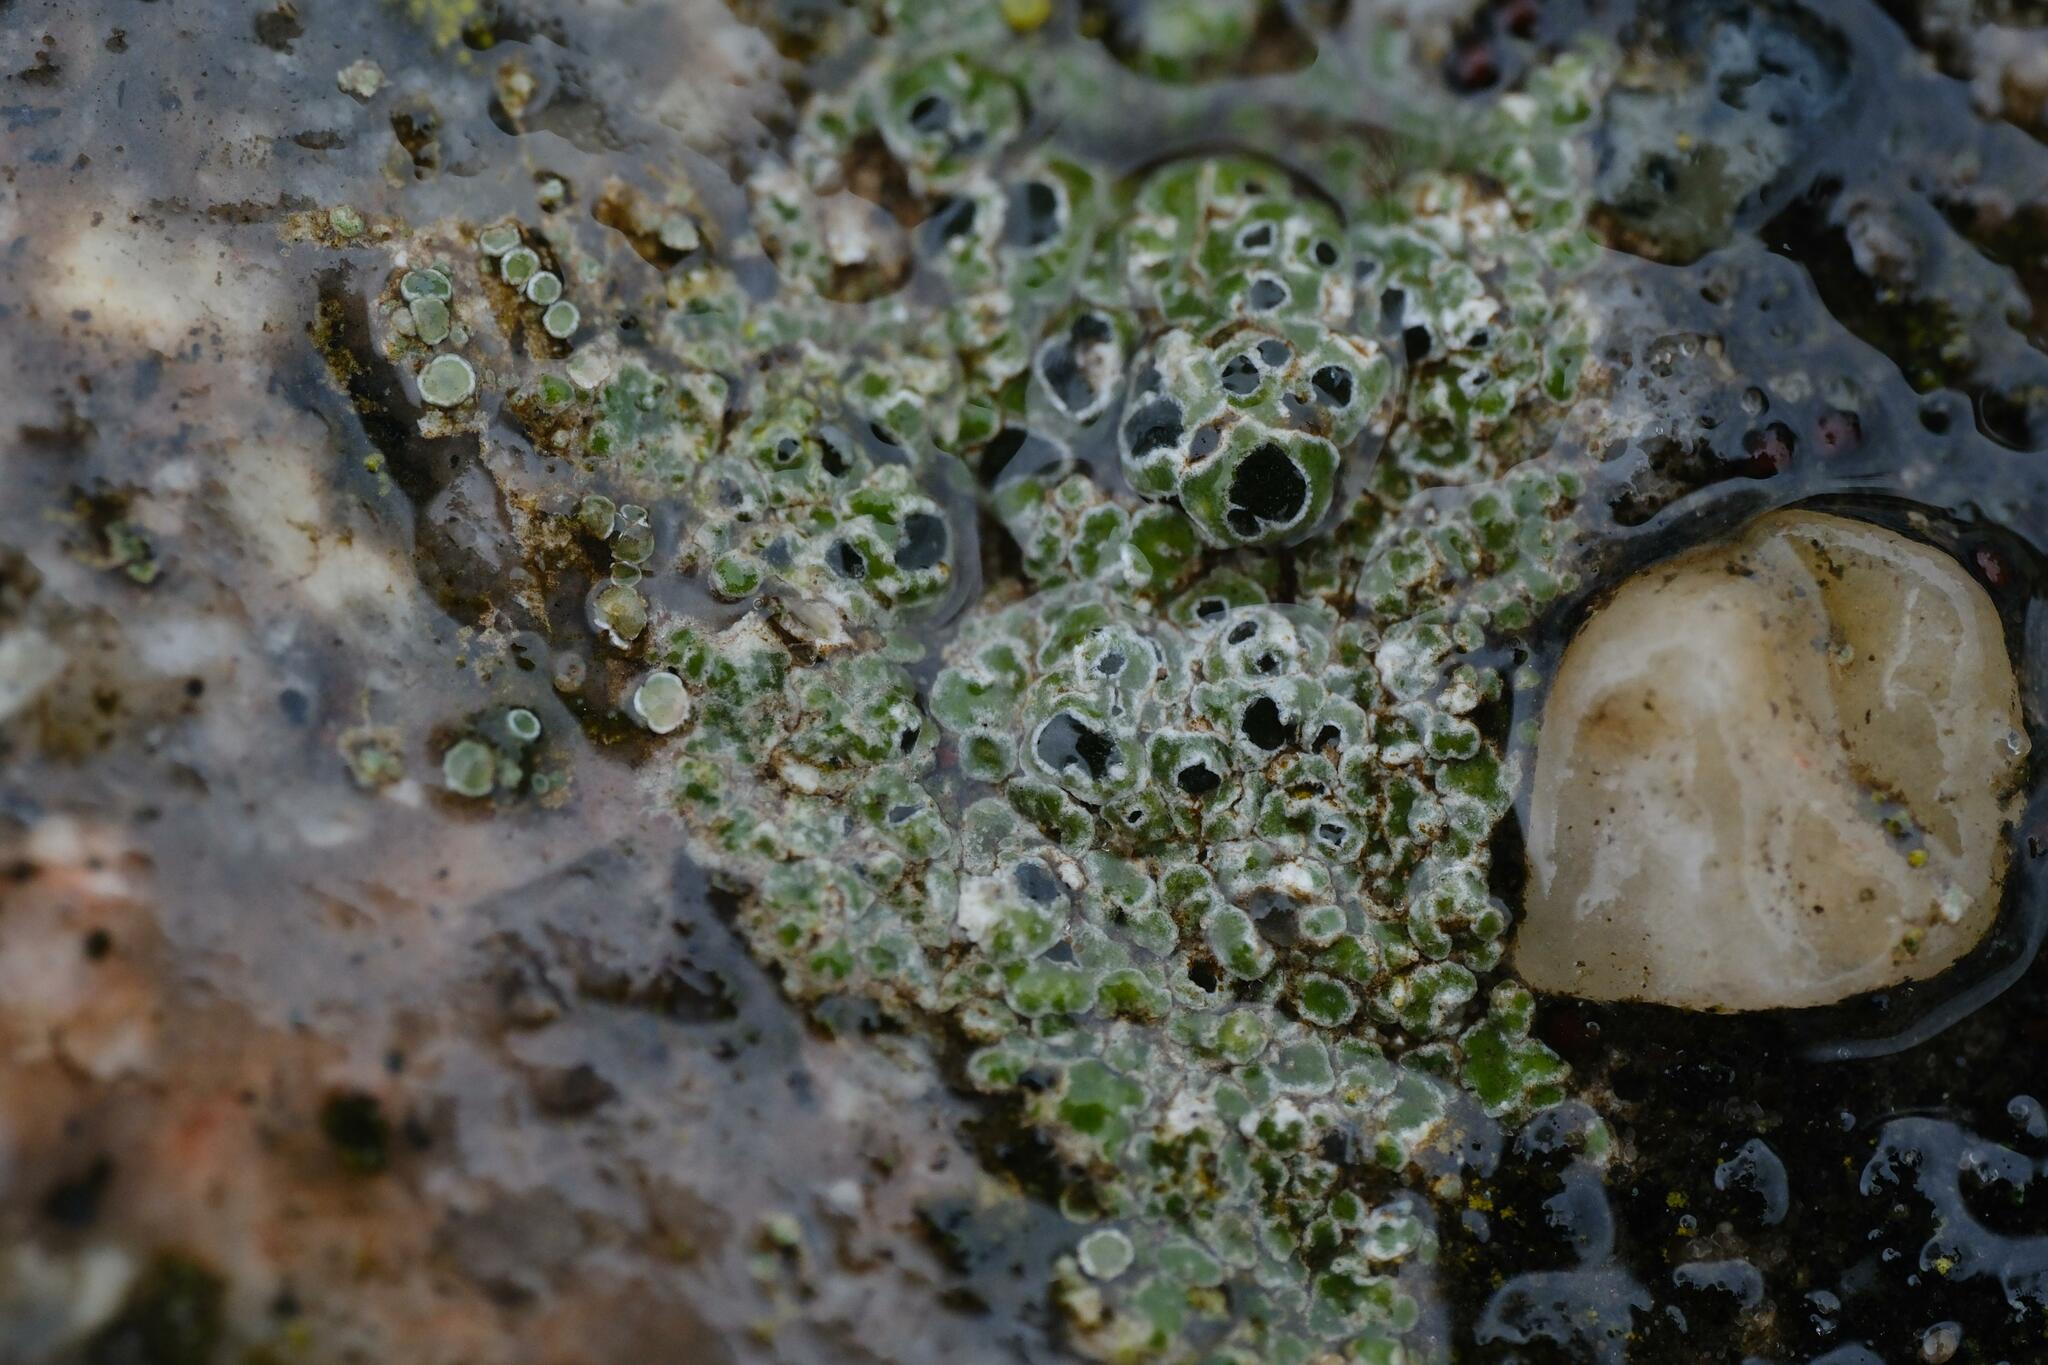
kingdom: Fungi
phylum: Ascomycota
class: Lecanoromycetes
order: Pertusariales
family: Megasporaceae
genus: Circinaria
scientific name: Circinaria contorta
